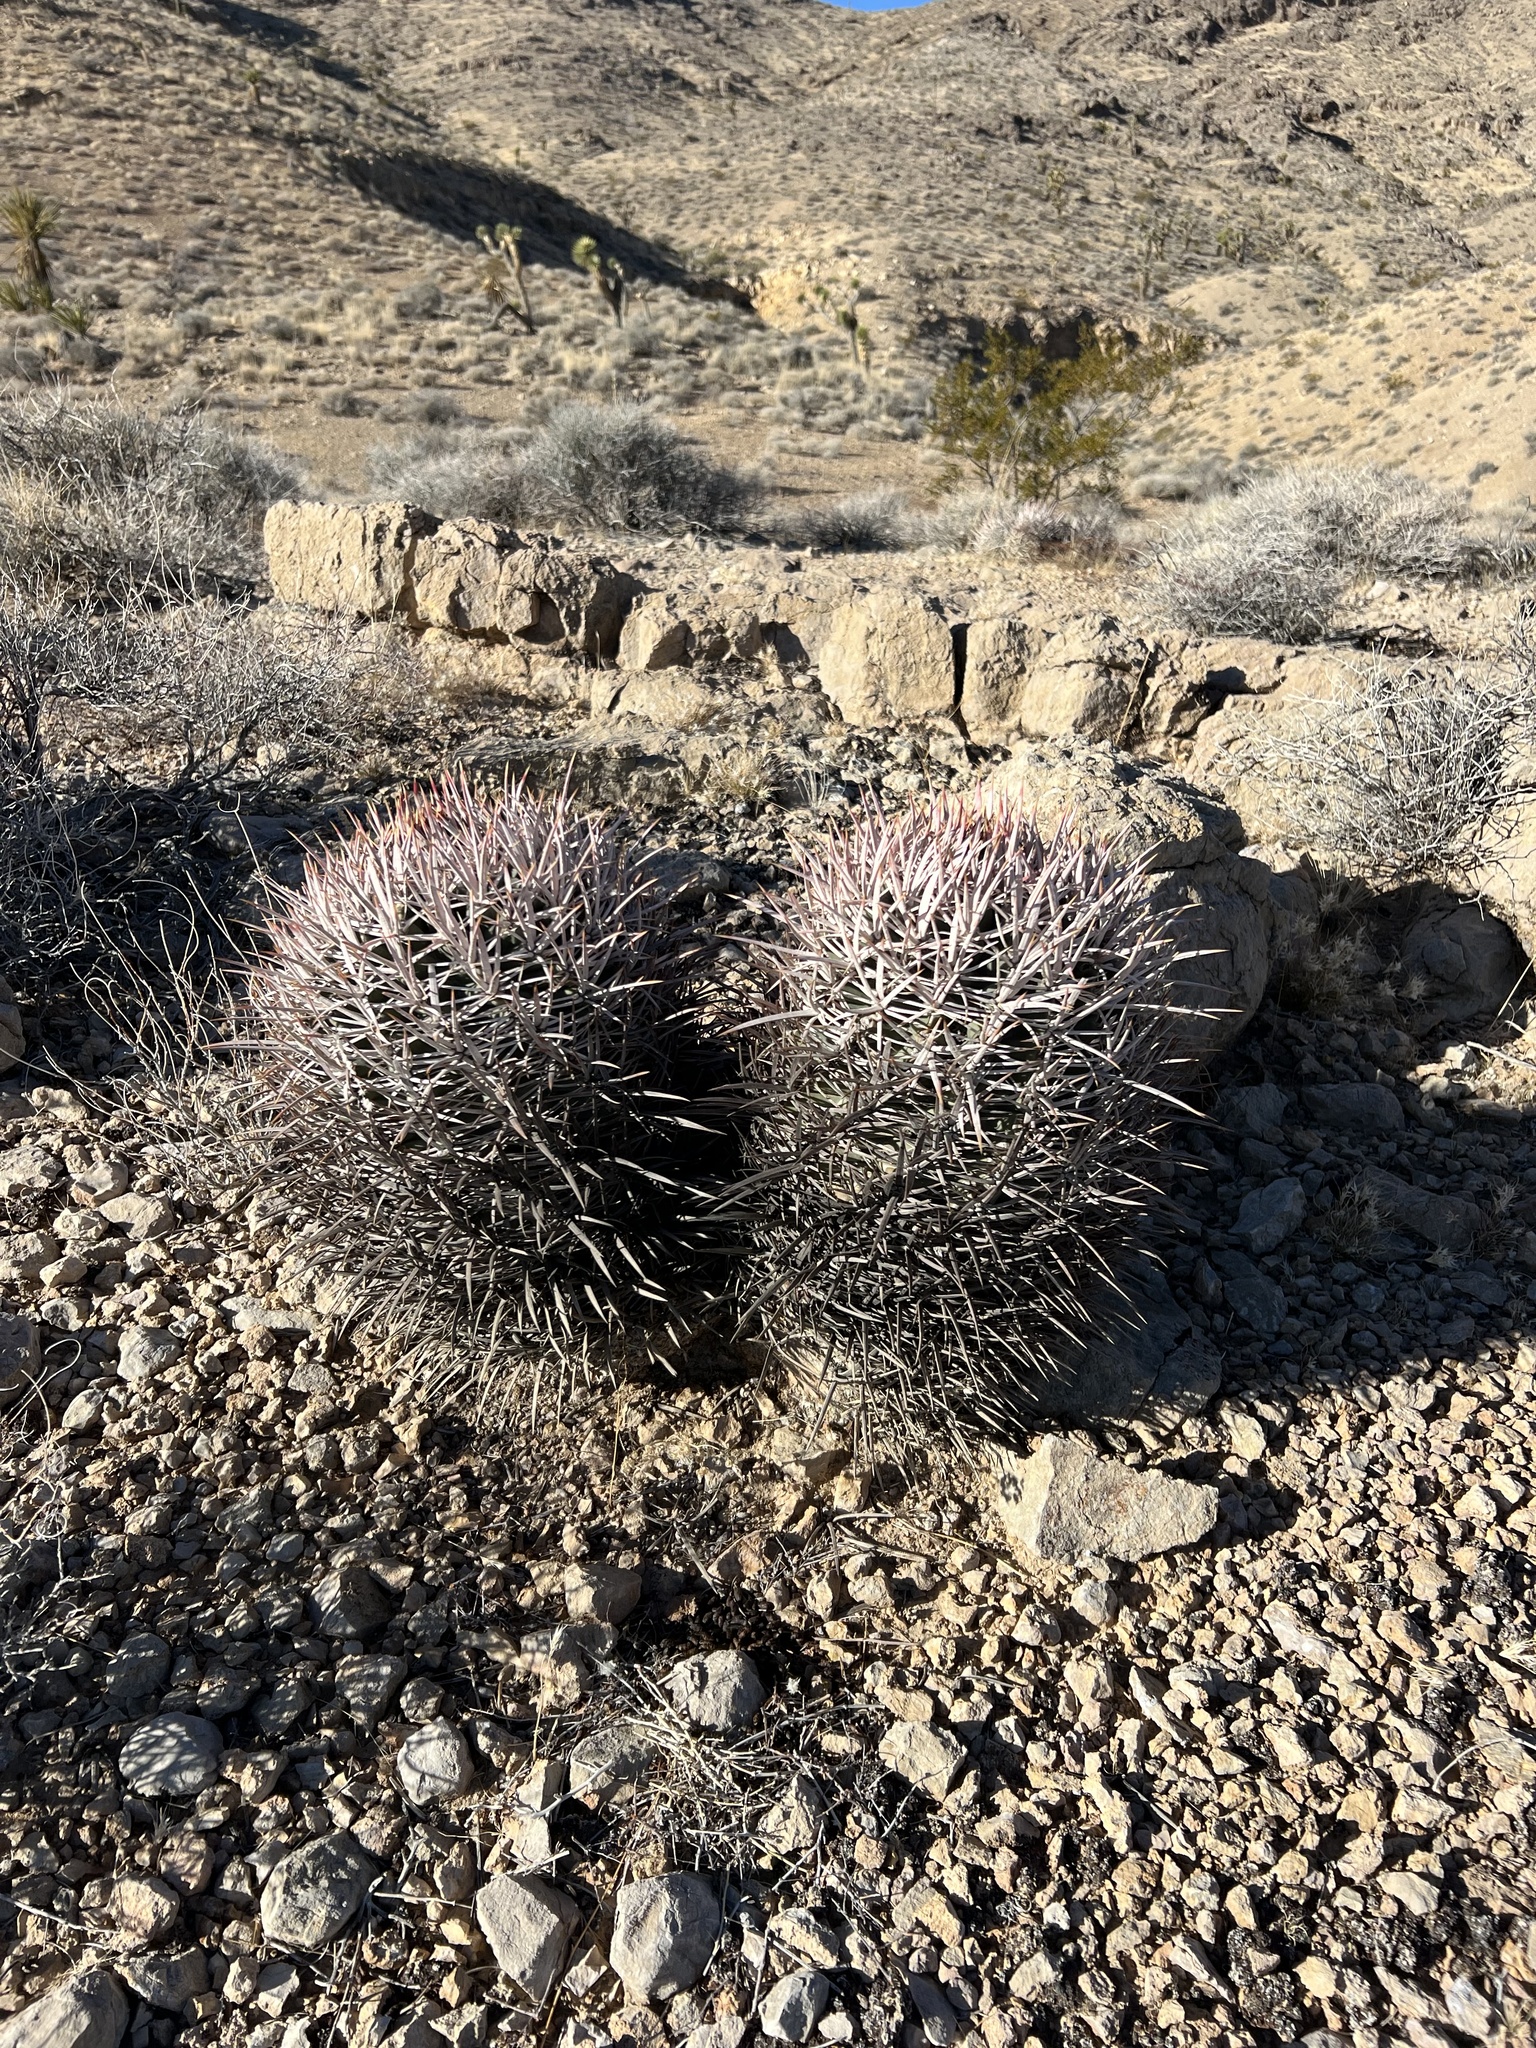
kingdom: Plantae
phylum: Tracheophyta
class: Magnoliopsida
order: Caryophyllales
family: Cactaceae
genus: Echinocactus
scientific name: Echinocactus polycephalus
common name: Cottontop cactus
